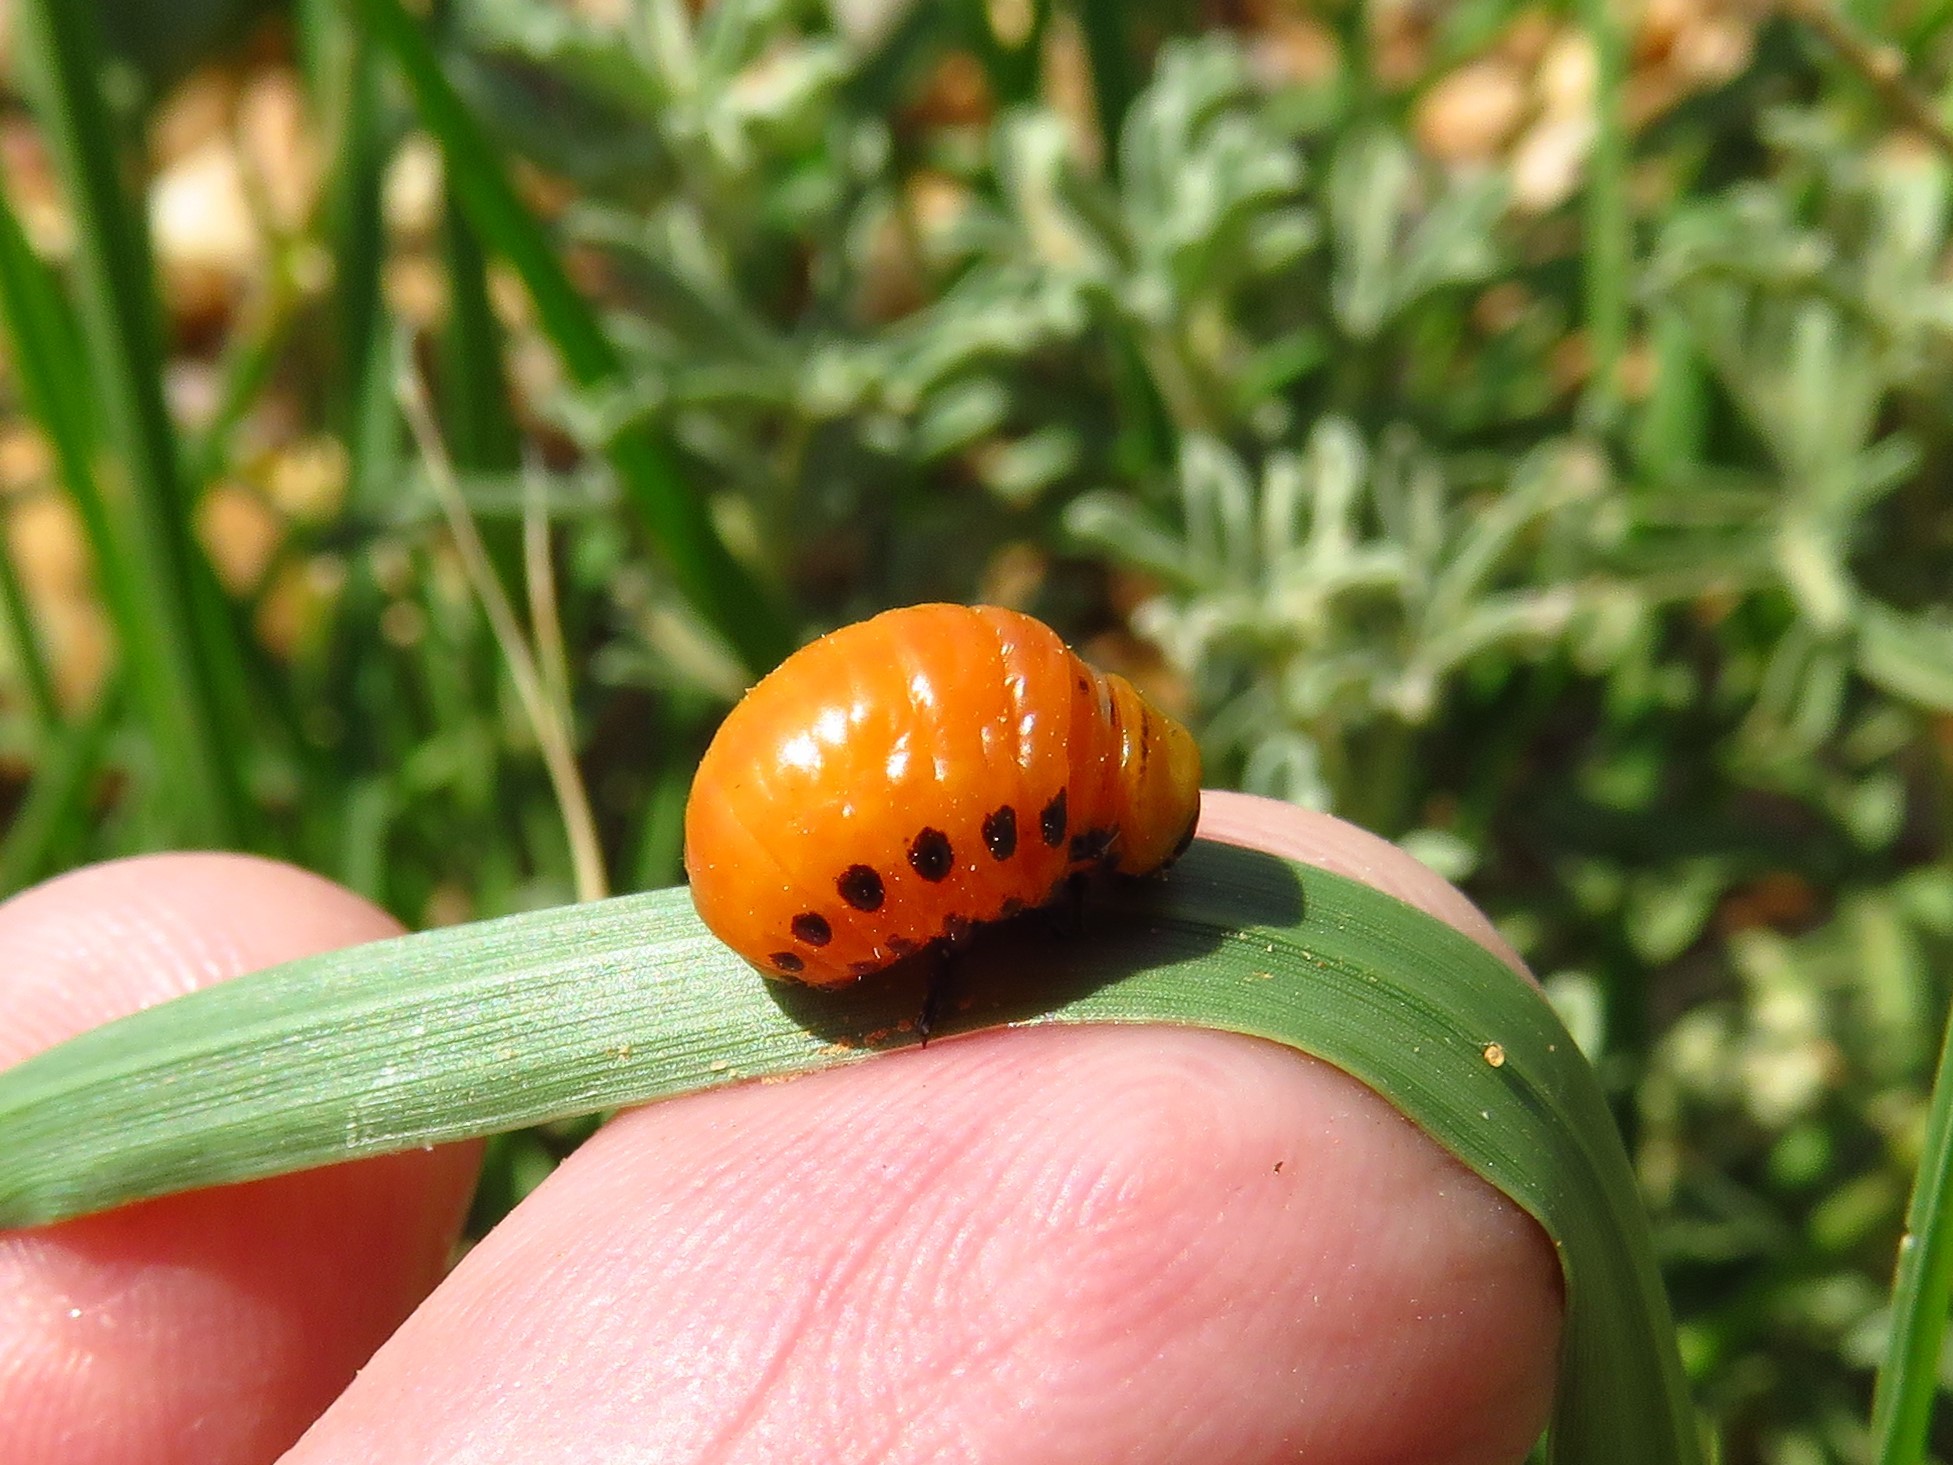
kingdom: Animalia
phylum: Arthropoda
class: Insecta
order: Coleoptera
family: Chrysomelidae
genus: Leptinotarsa
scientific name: Leptinotarsa decemlineata
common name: Colorado potato beetle
